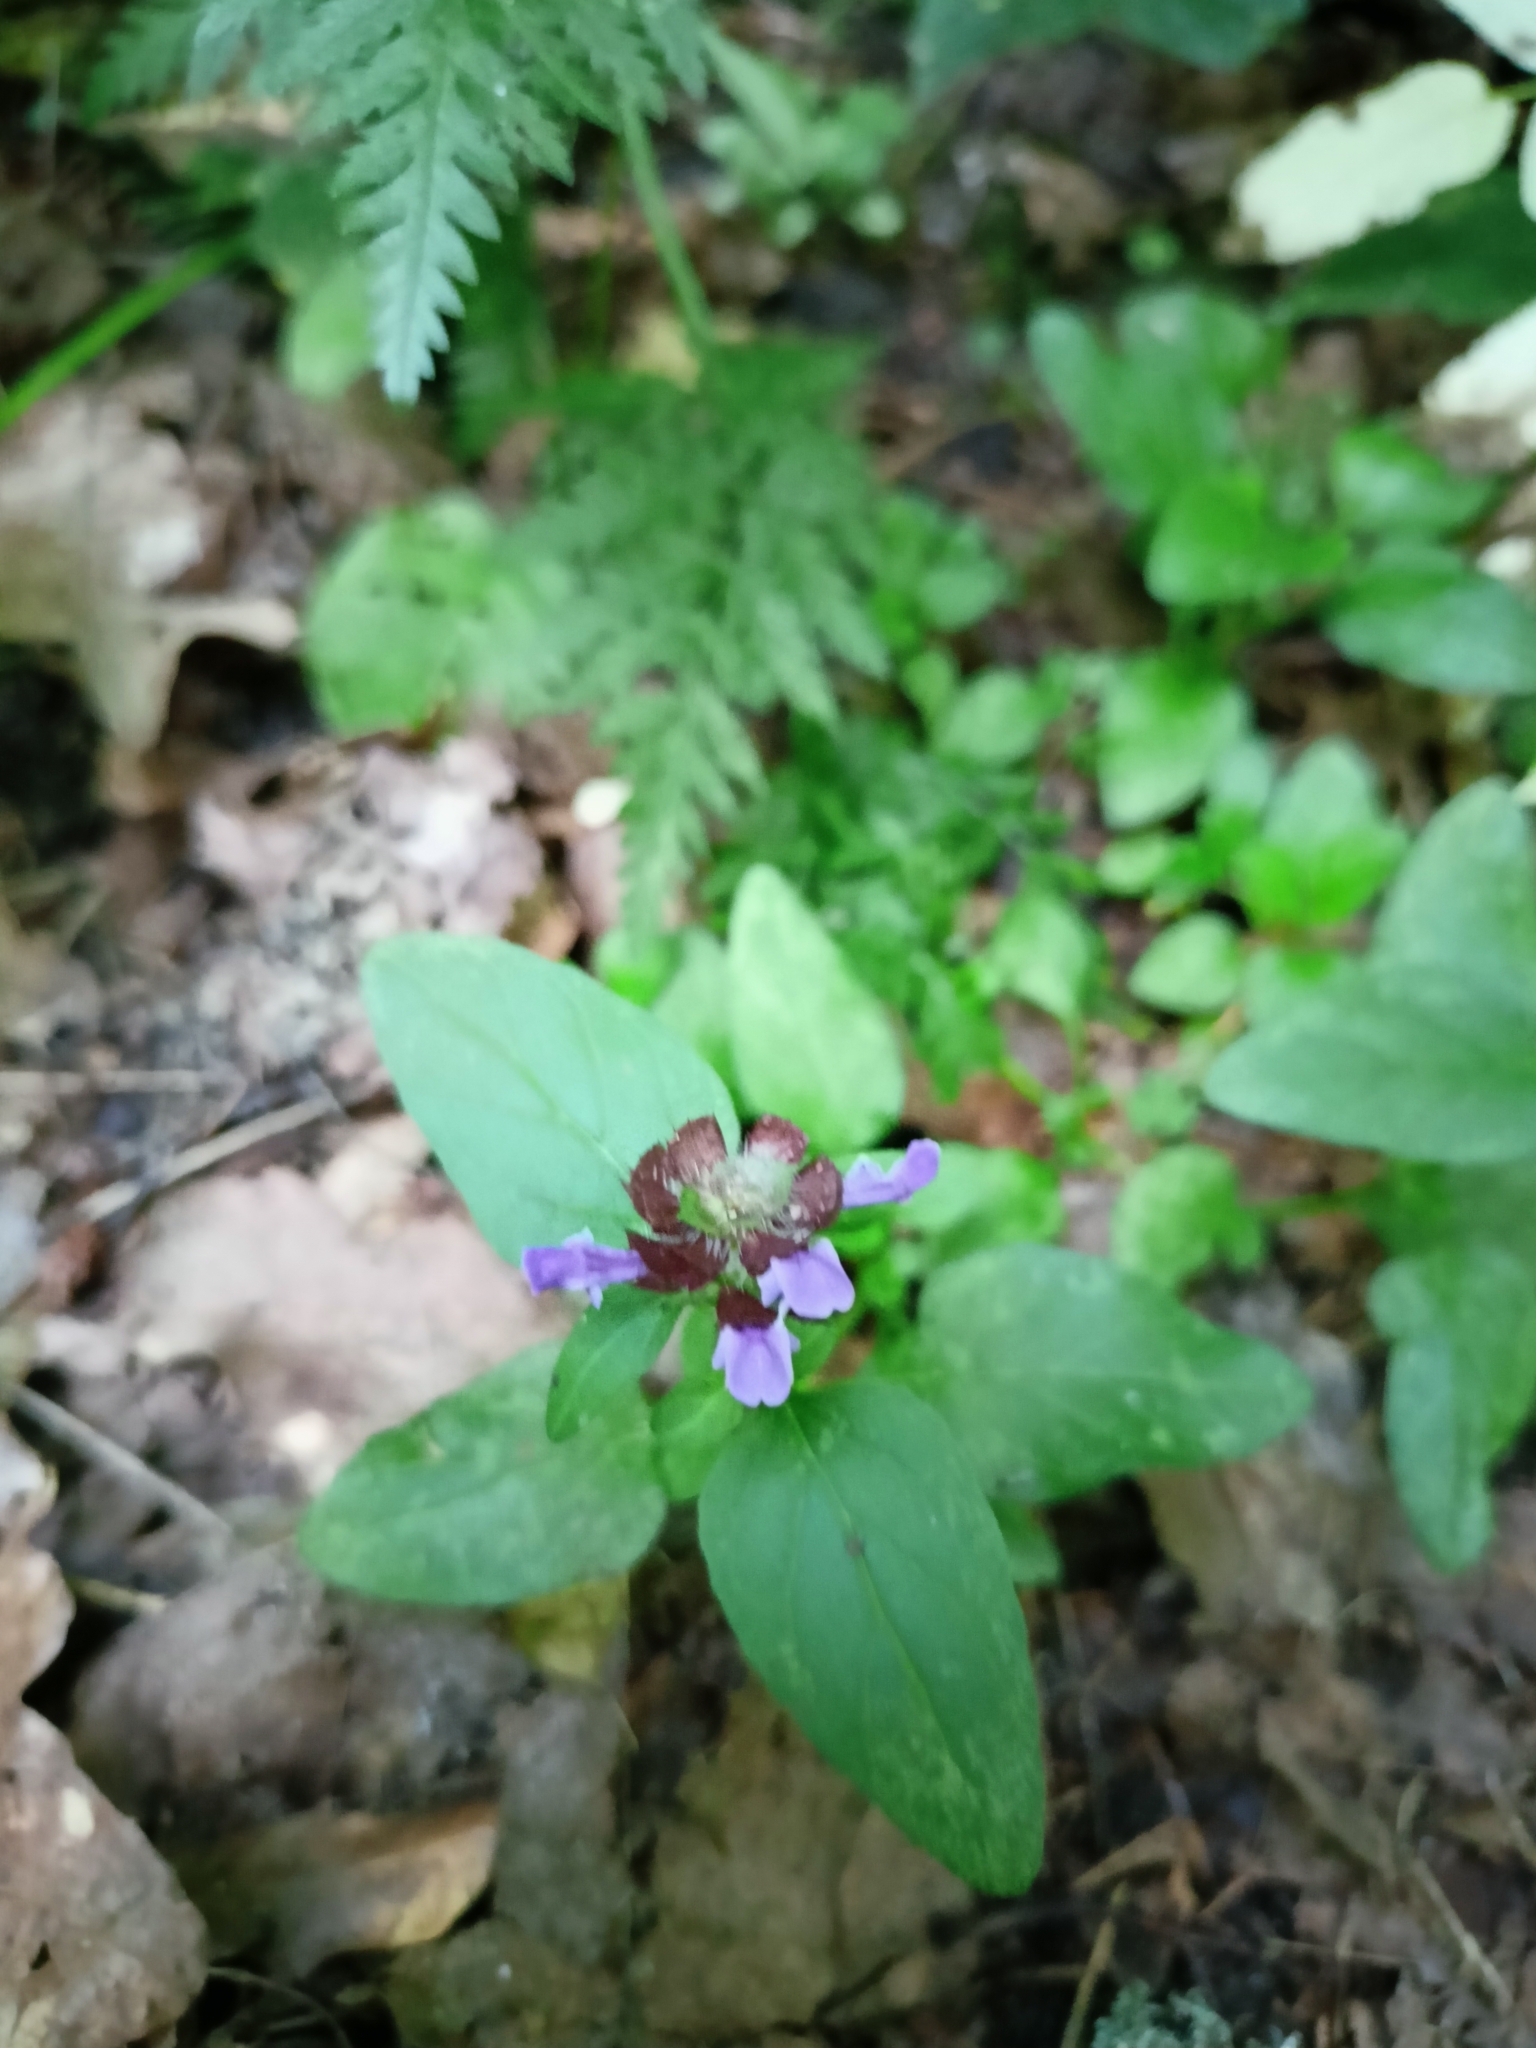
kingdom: Plantae
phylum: Tracheophyta
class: Magnoliopsida
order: Lamiales
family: Lamiaceae
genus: Prunella
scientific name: Prunella vulgaris
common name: Heal-all
